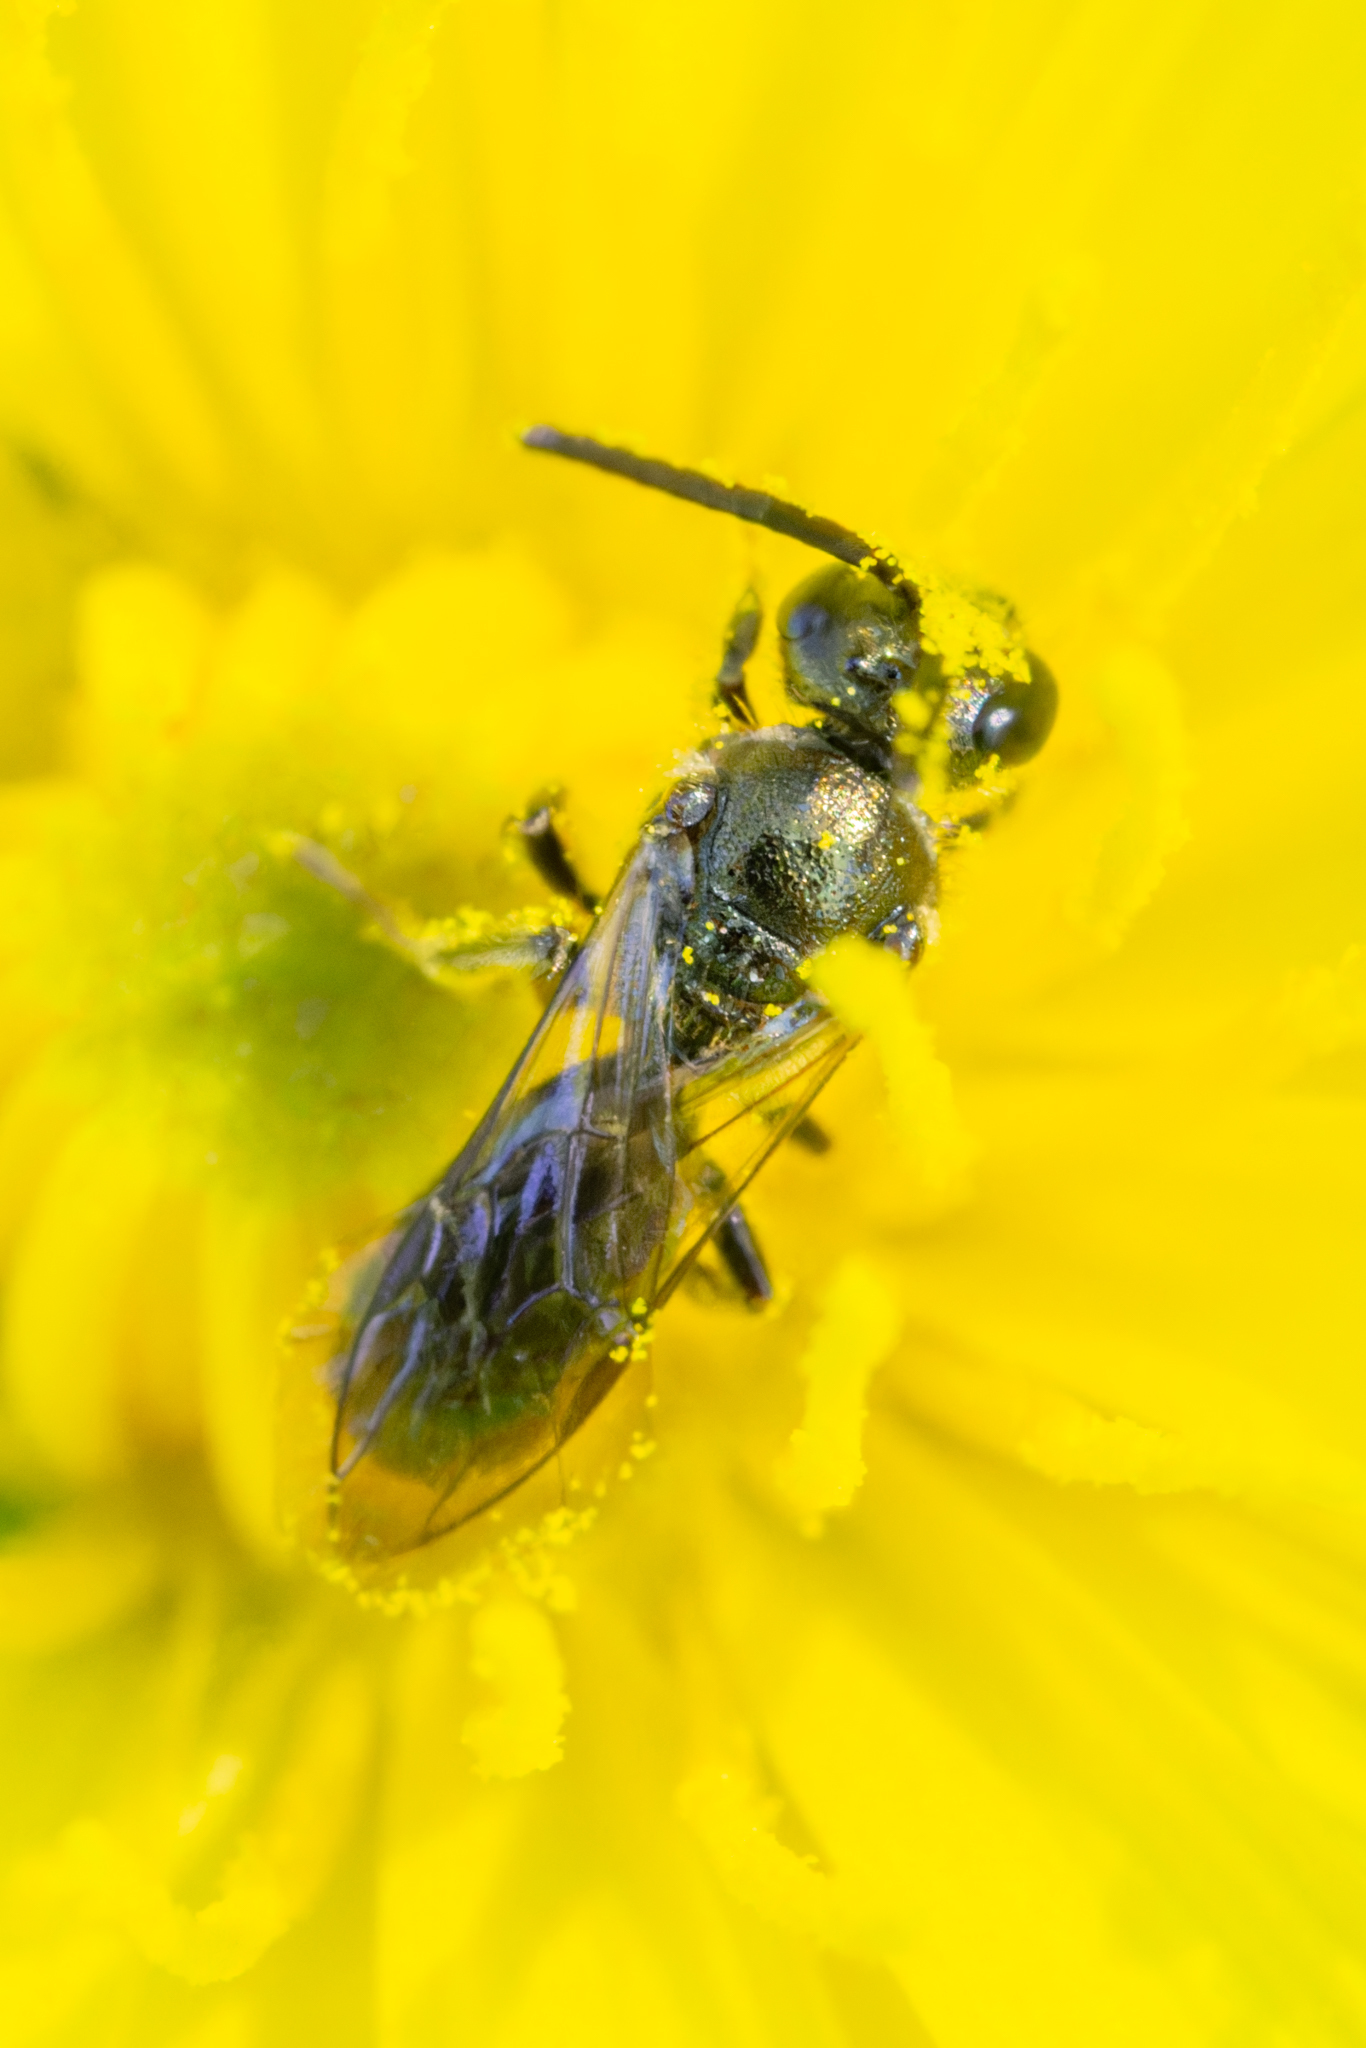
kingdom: Animalia
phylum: Arthropoda
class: Insecta
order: Hymenoptera
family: Halictidae
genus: Dialictus
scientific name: Dialictus
